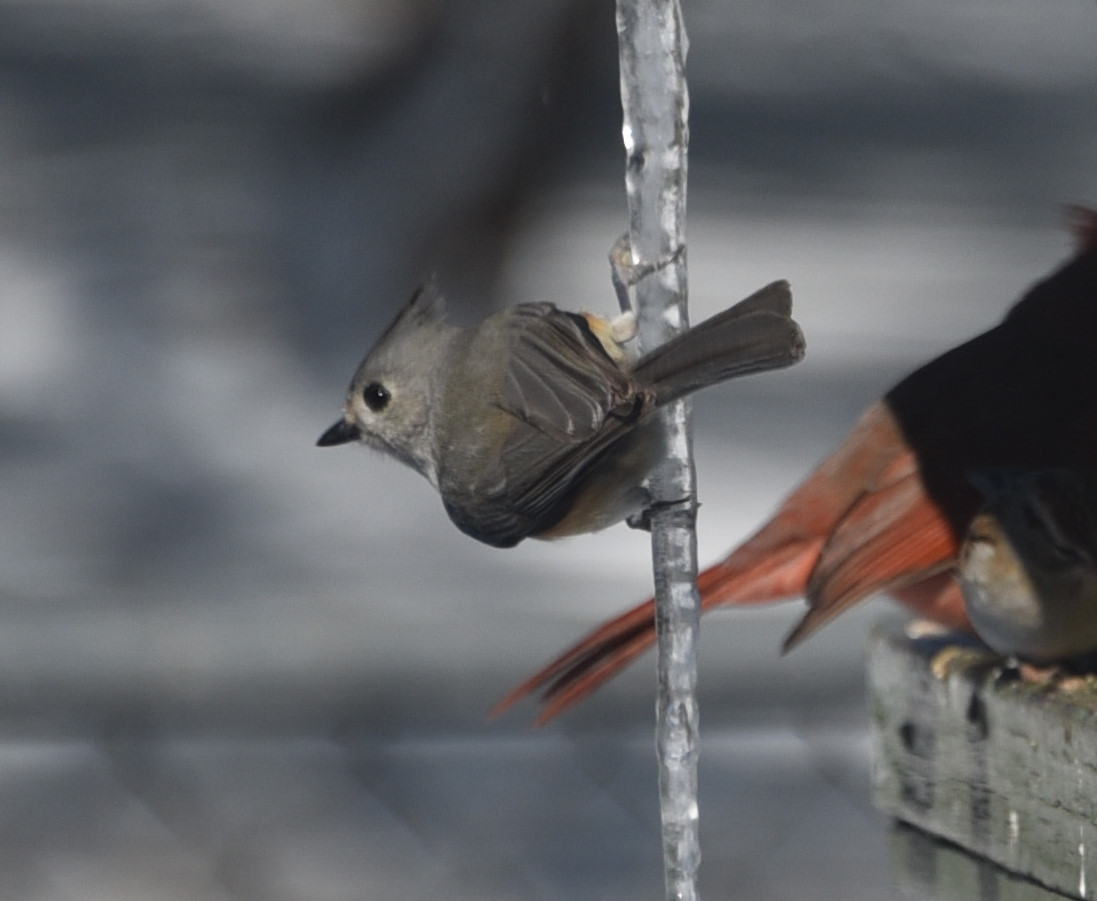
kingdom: Animalia
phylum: Chordata
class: Aves
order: Passeriformes
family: Paridae
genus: Baeolophus
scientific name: Baeolophus atricristatus
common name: Black-crested titmouse
